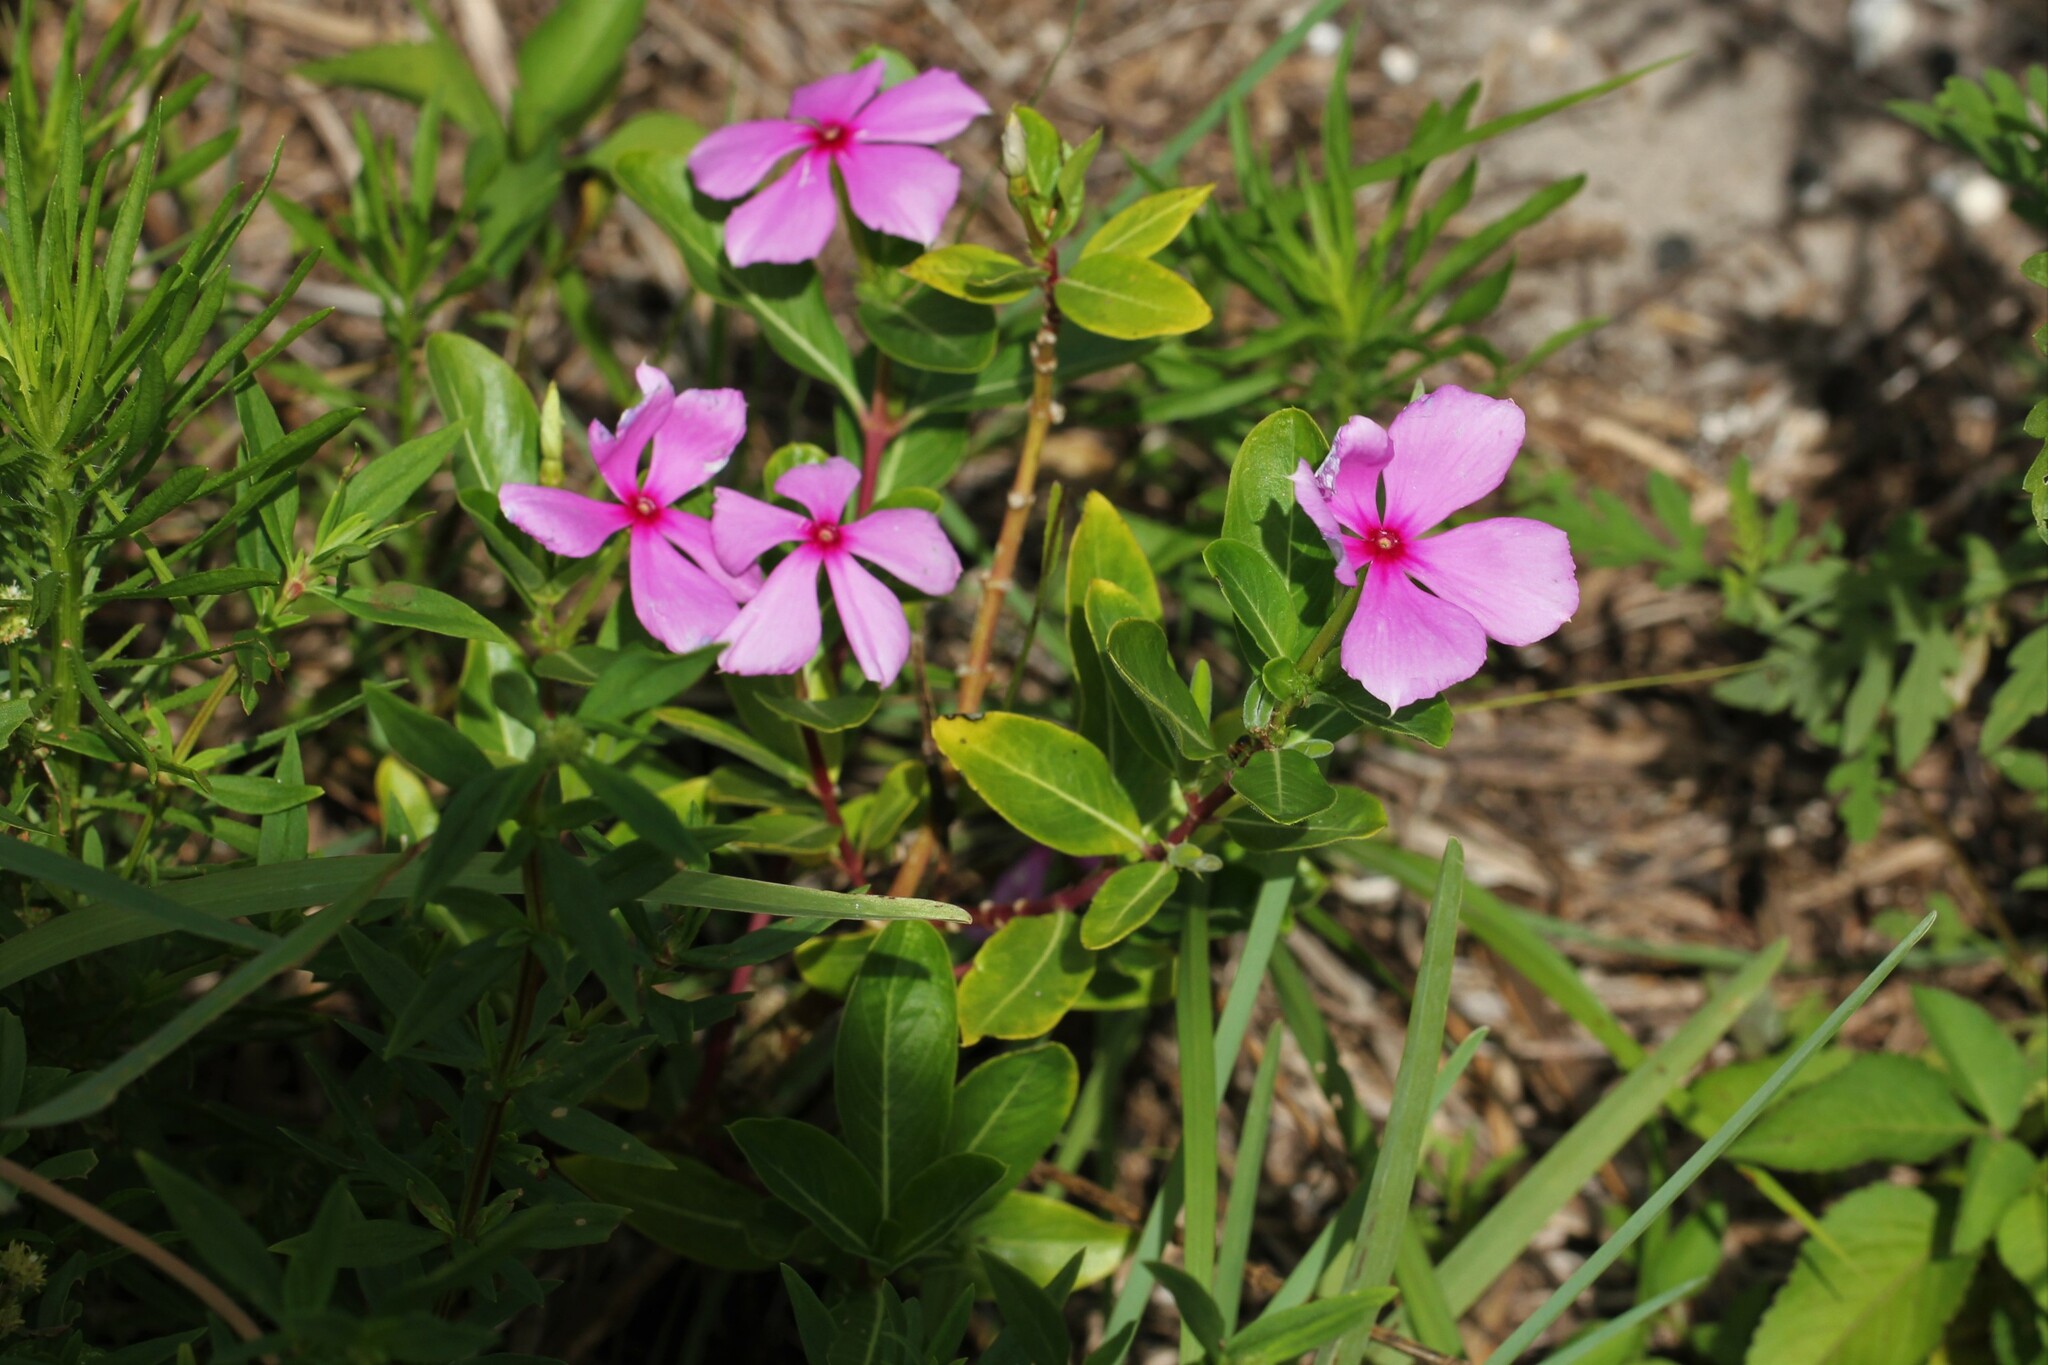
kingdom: Plantae
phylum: Tracheophyta
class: Magnoliopsida
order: Gentianales
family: Apocynaceae
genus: Catharanthus
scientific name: Catharanthus roseus
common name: Madagascar periwinkle
